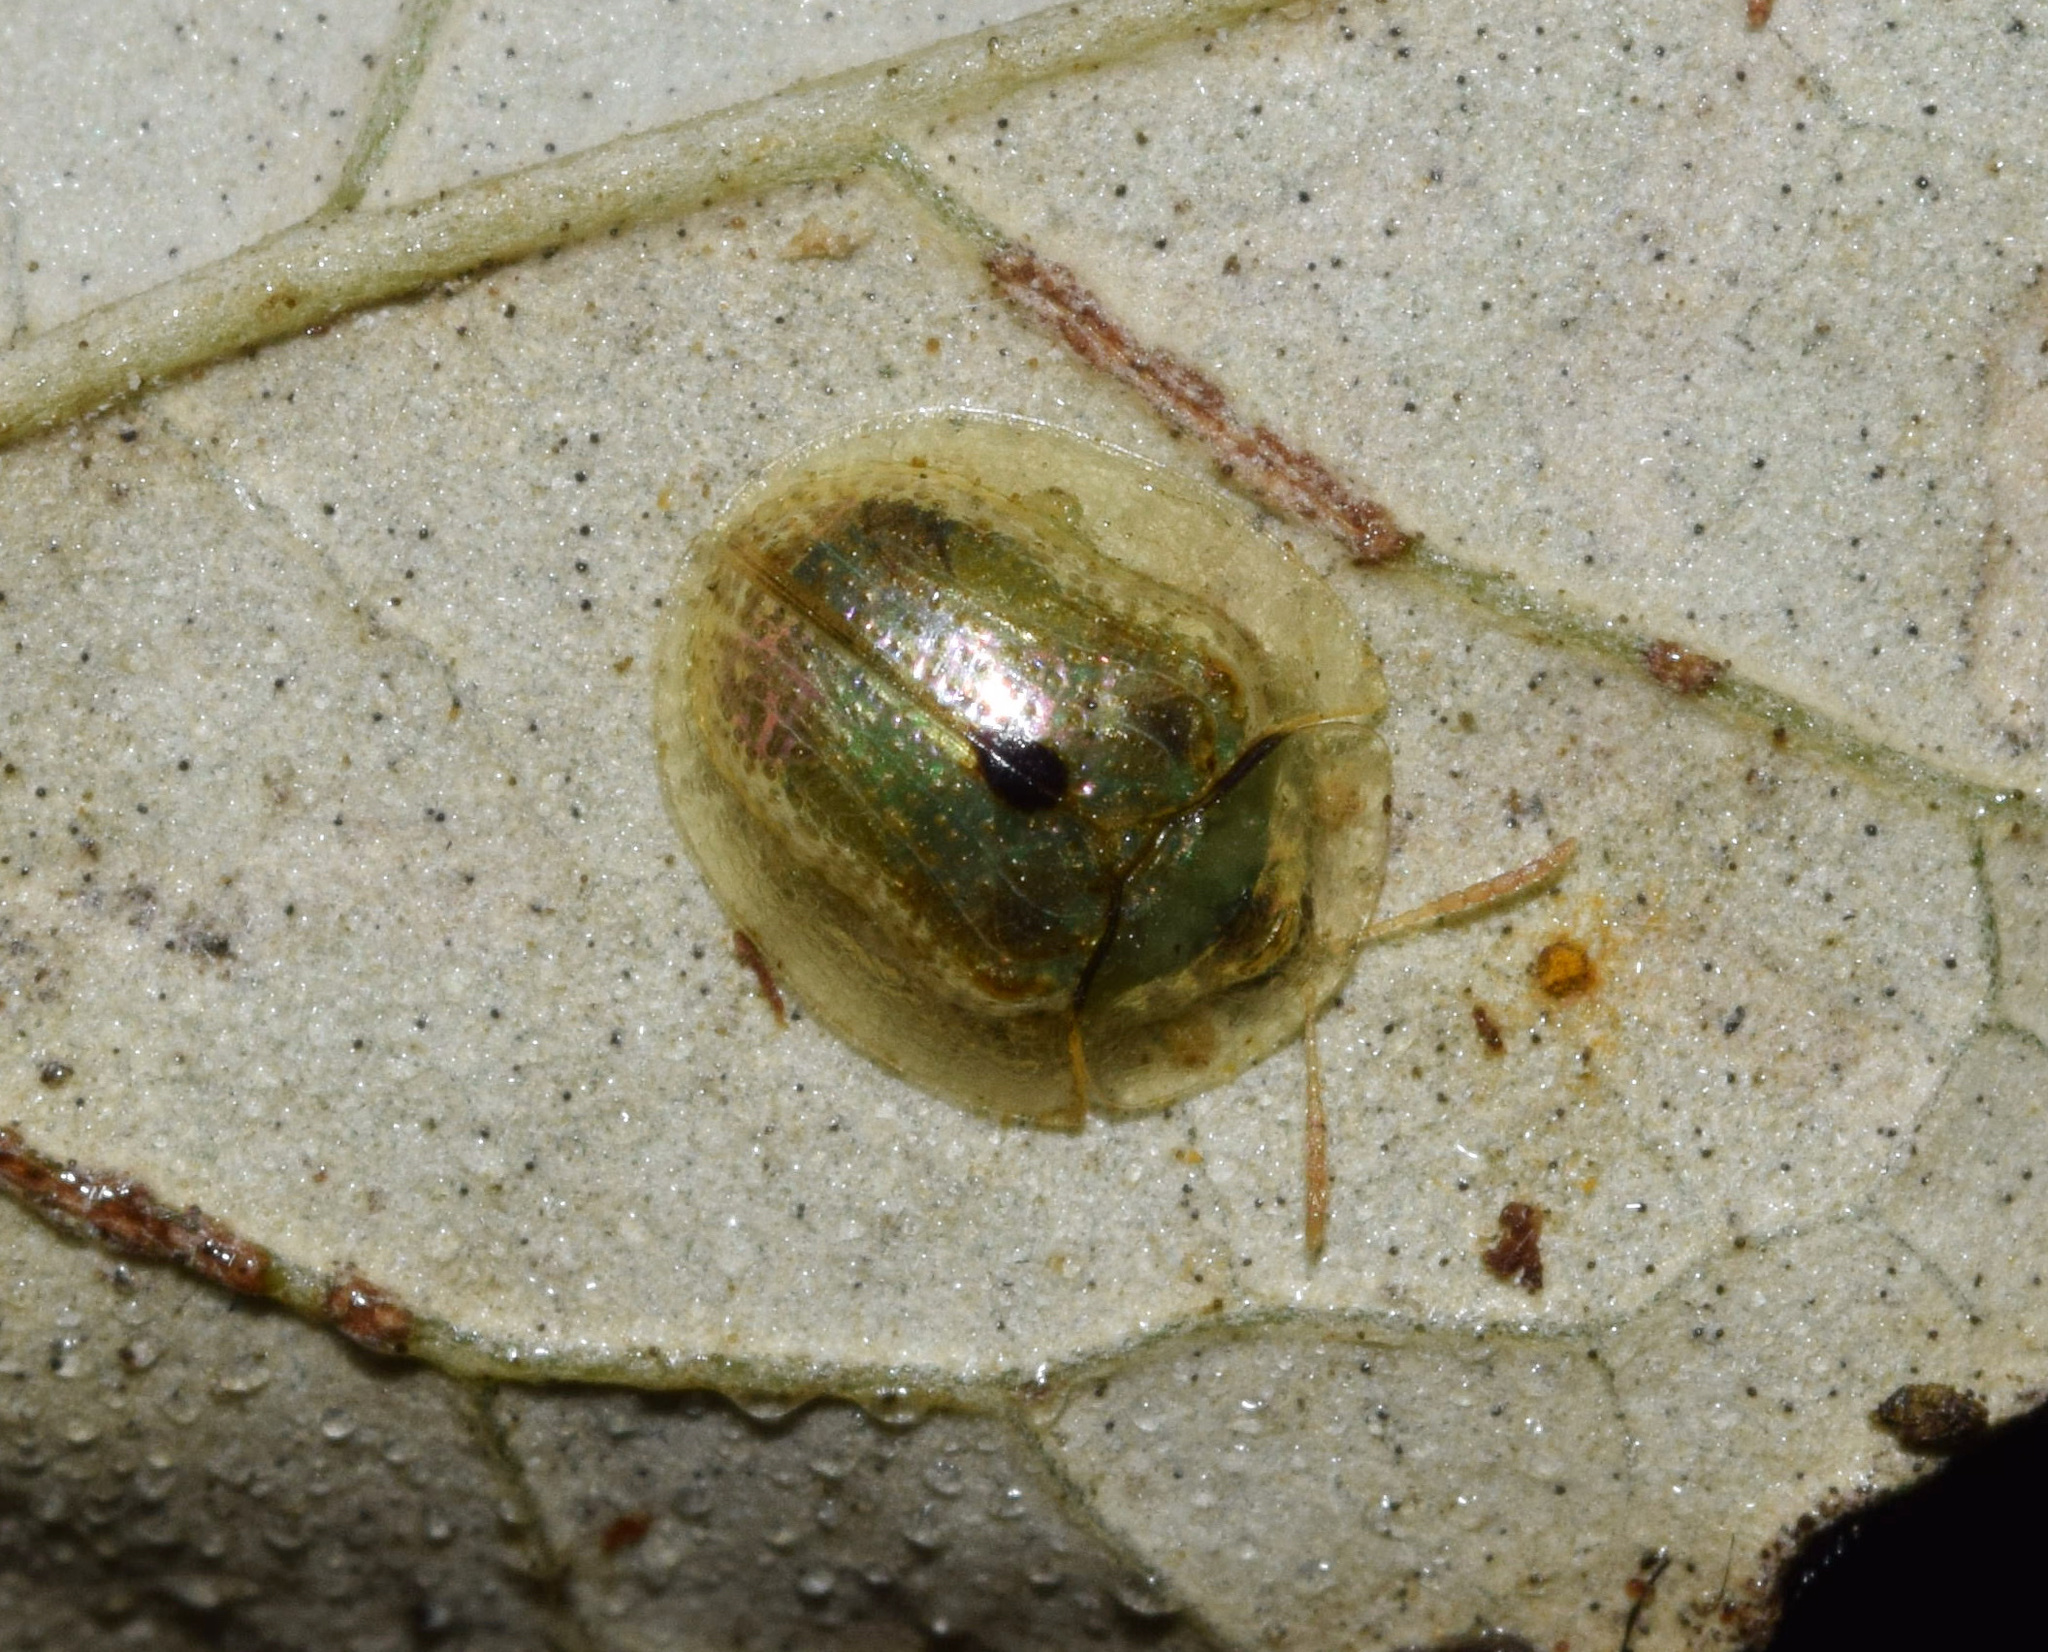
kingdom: Animalia
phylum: Arthropoda
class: Insecta
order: Coleoptera
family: Chrysomelidae
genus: Cassida
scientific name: Cassida unimaculata
